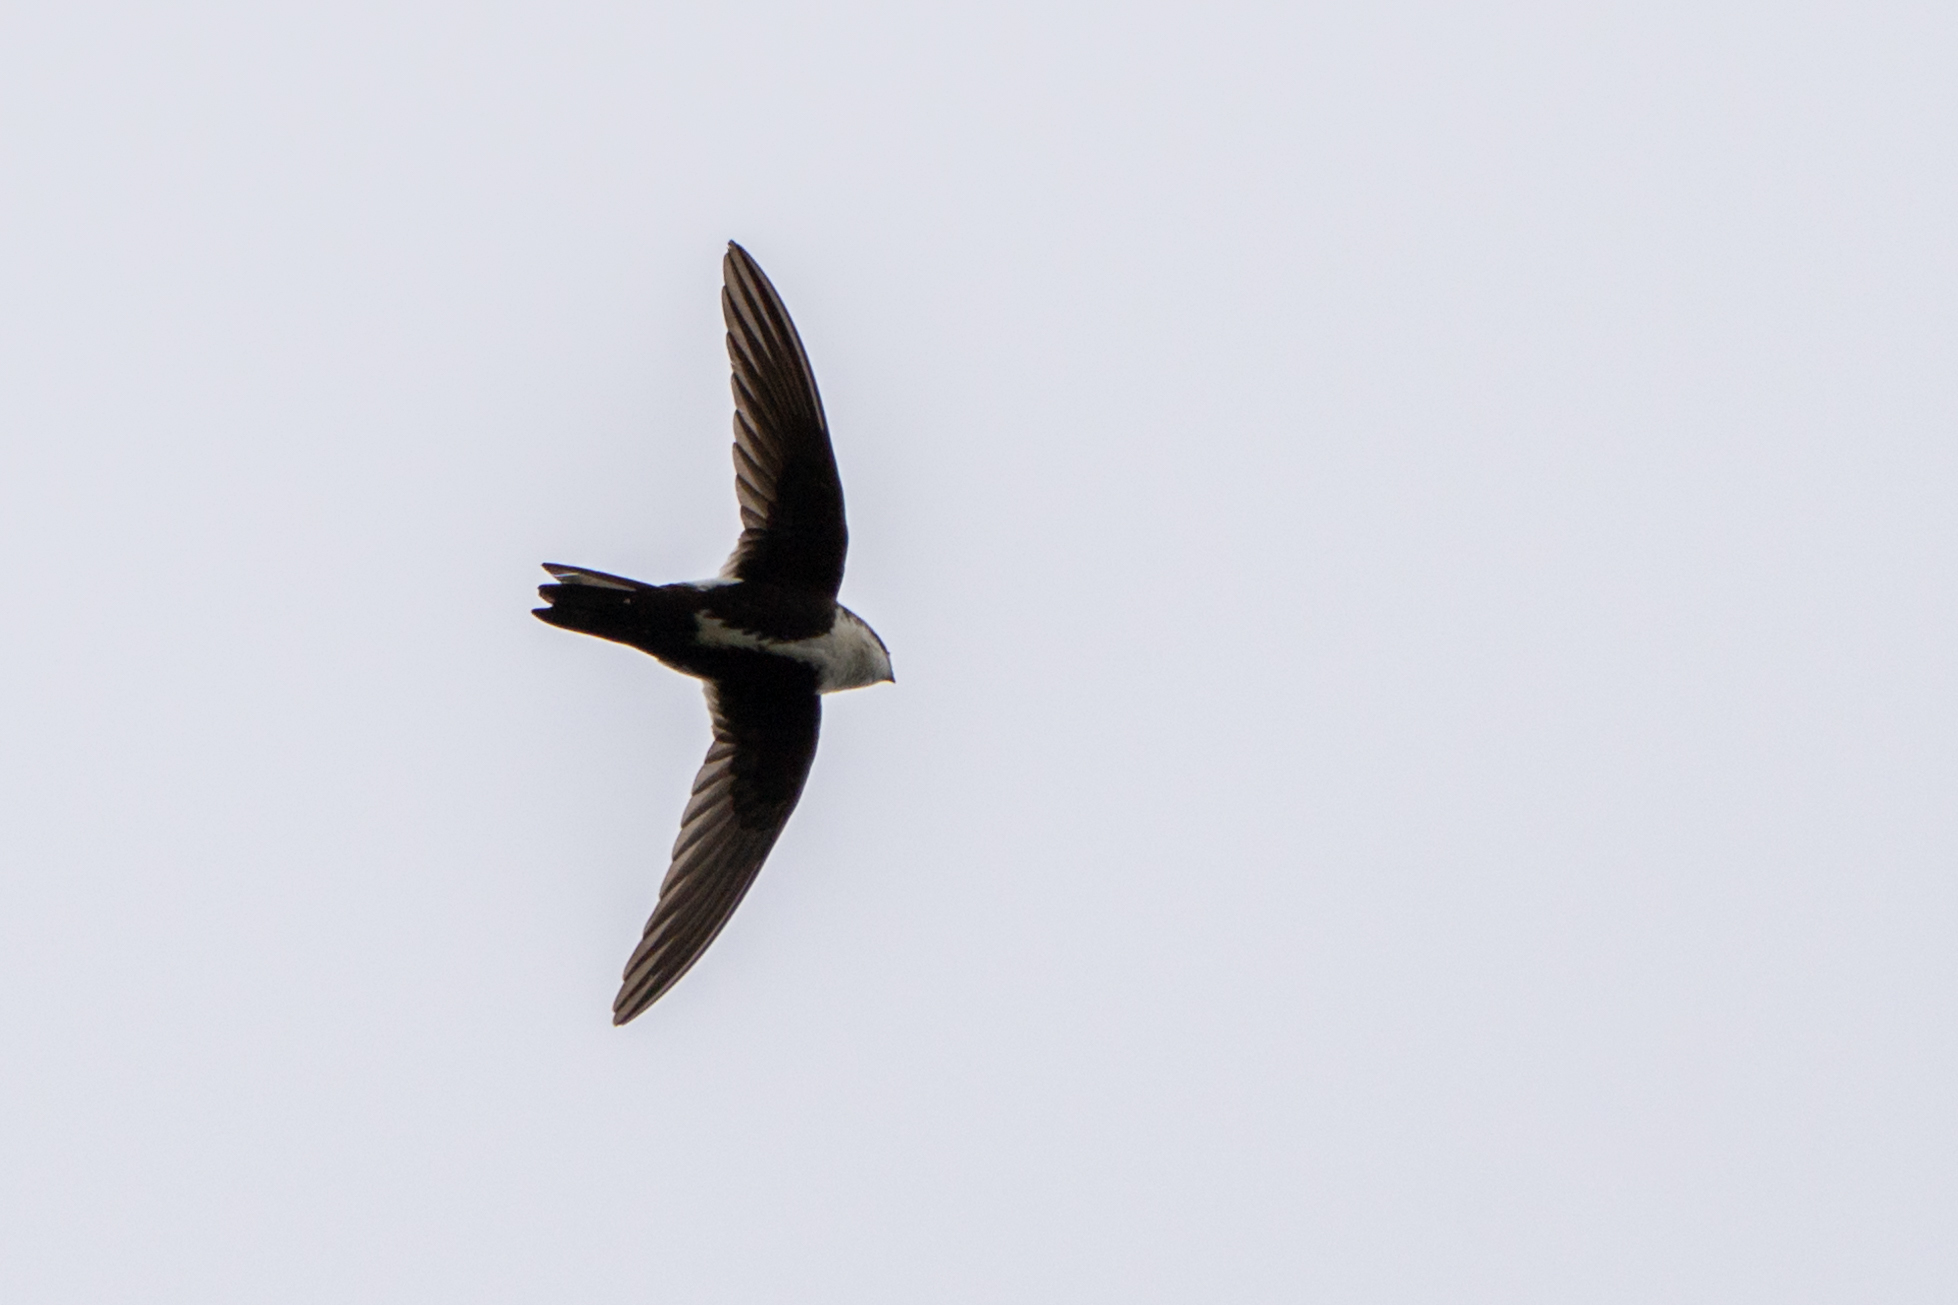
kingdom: Animalia
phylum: Chordata
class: Aves
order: Apodiformes
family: Apodidae
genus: Aeronautes
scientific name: Aeronautes saxatalis
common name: White-throated swift
